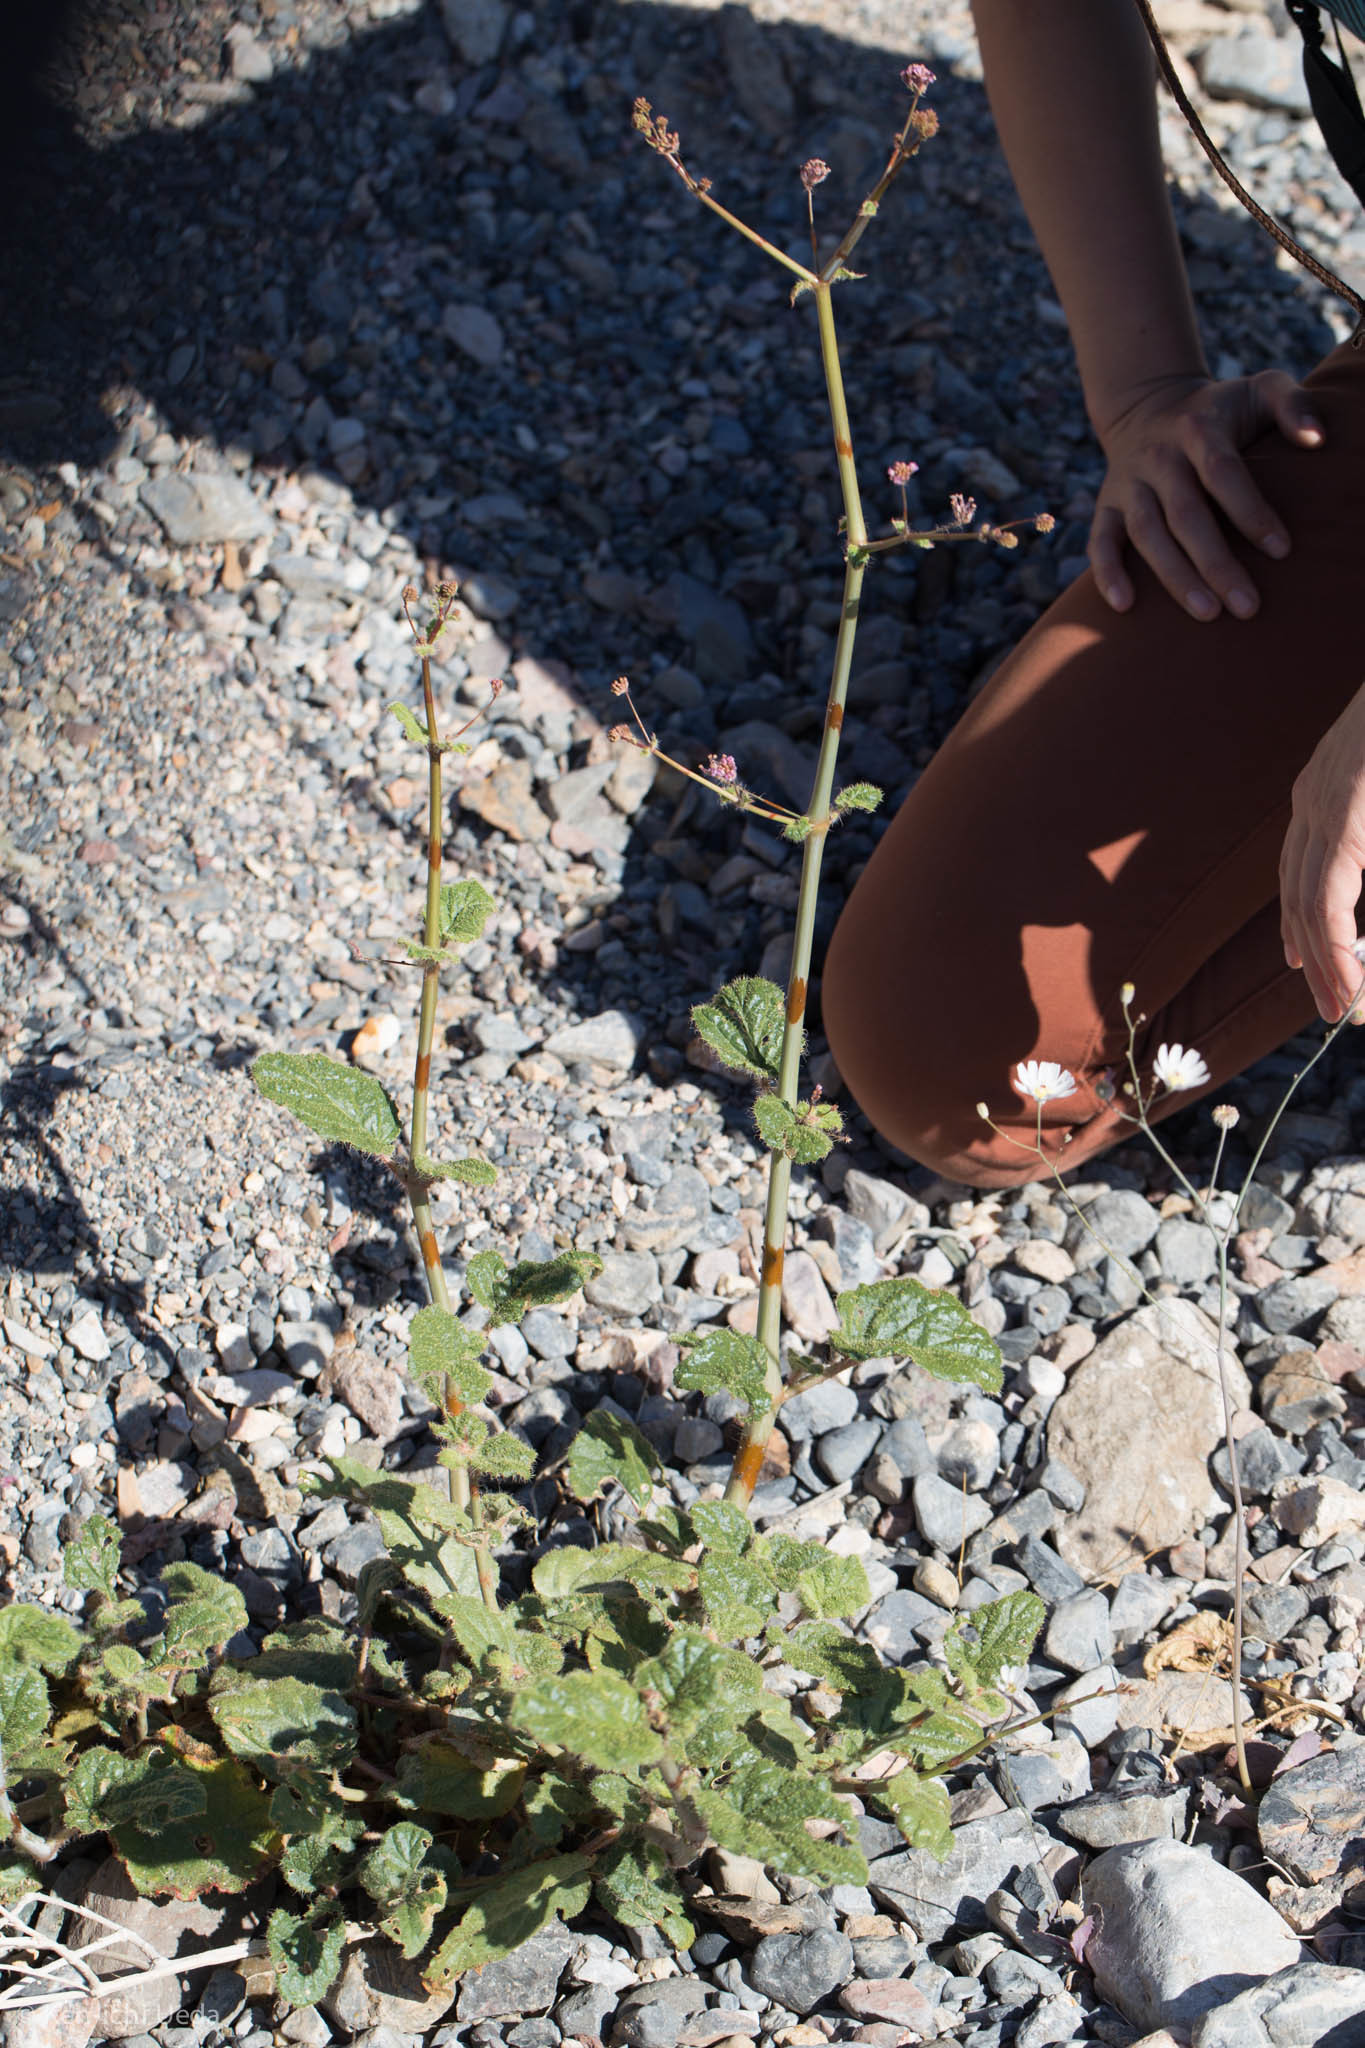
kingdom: Plantae
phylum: Tracheophyta
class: Magnoliopsida
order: Caryophyllales
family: Nyctaginaceae
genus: Anulocaulis
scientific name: Anulocaulis annulatus
